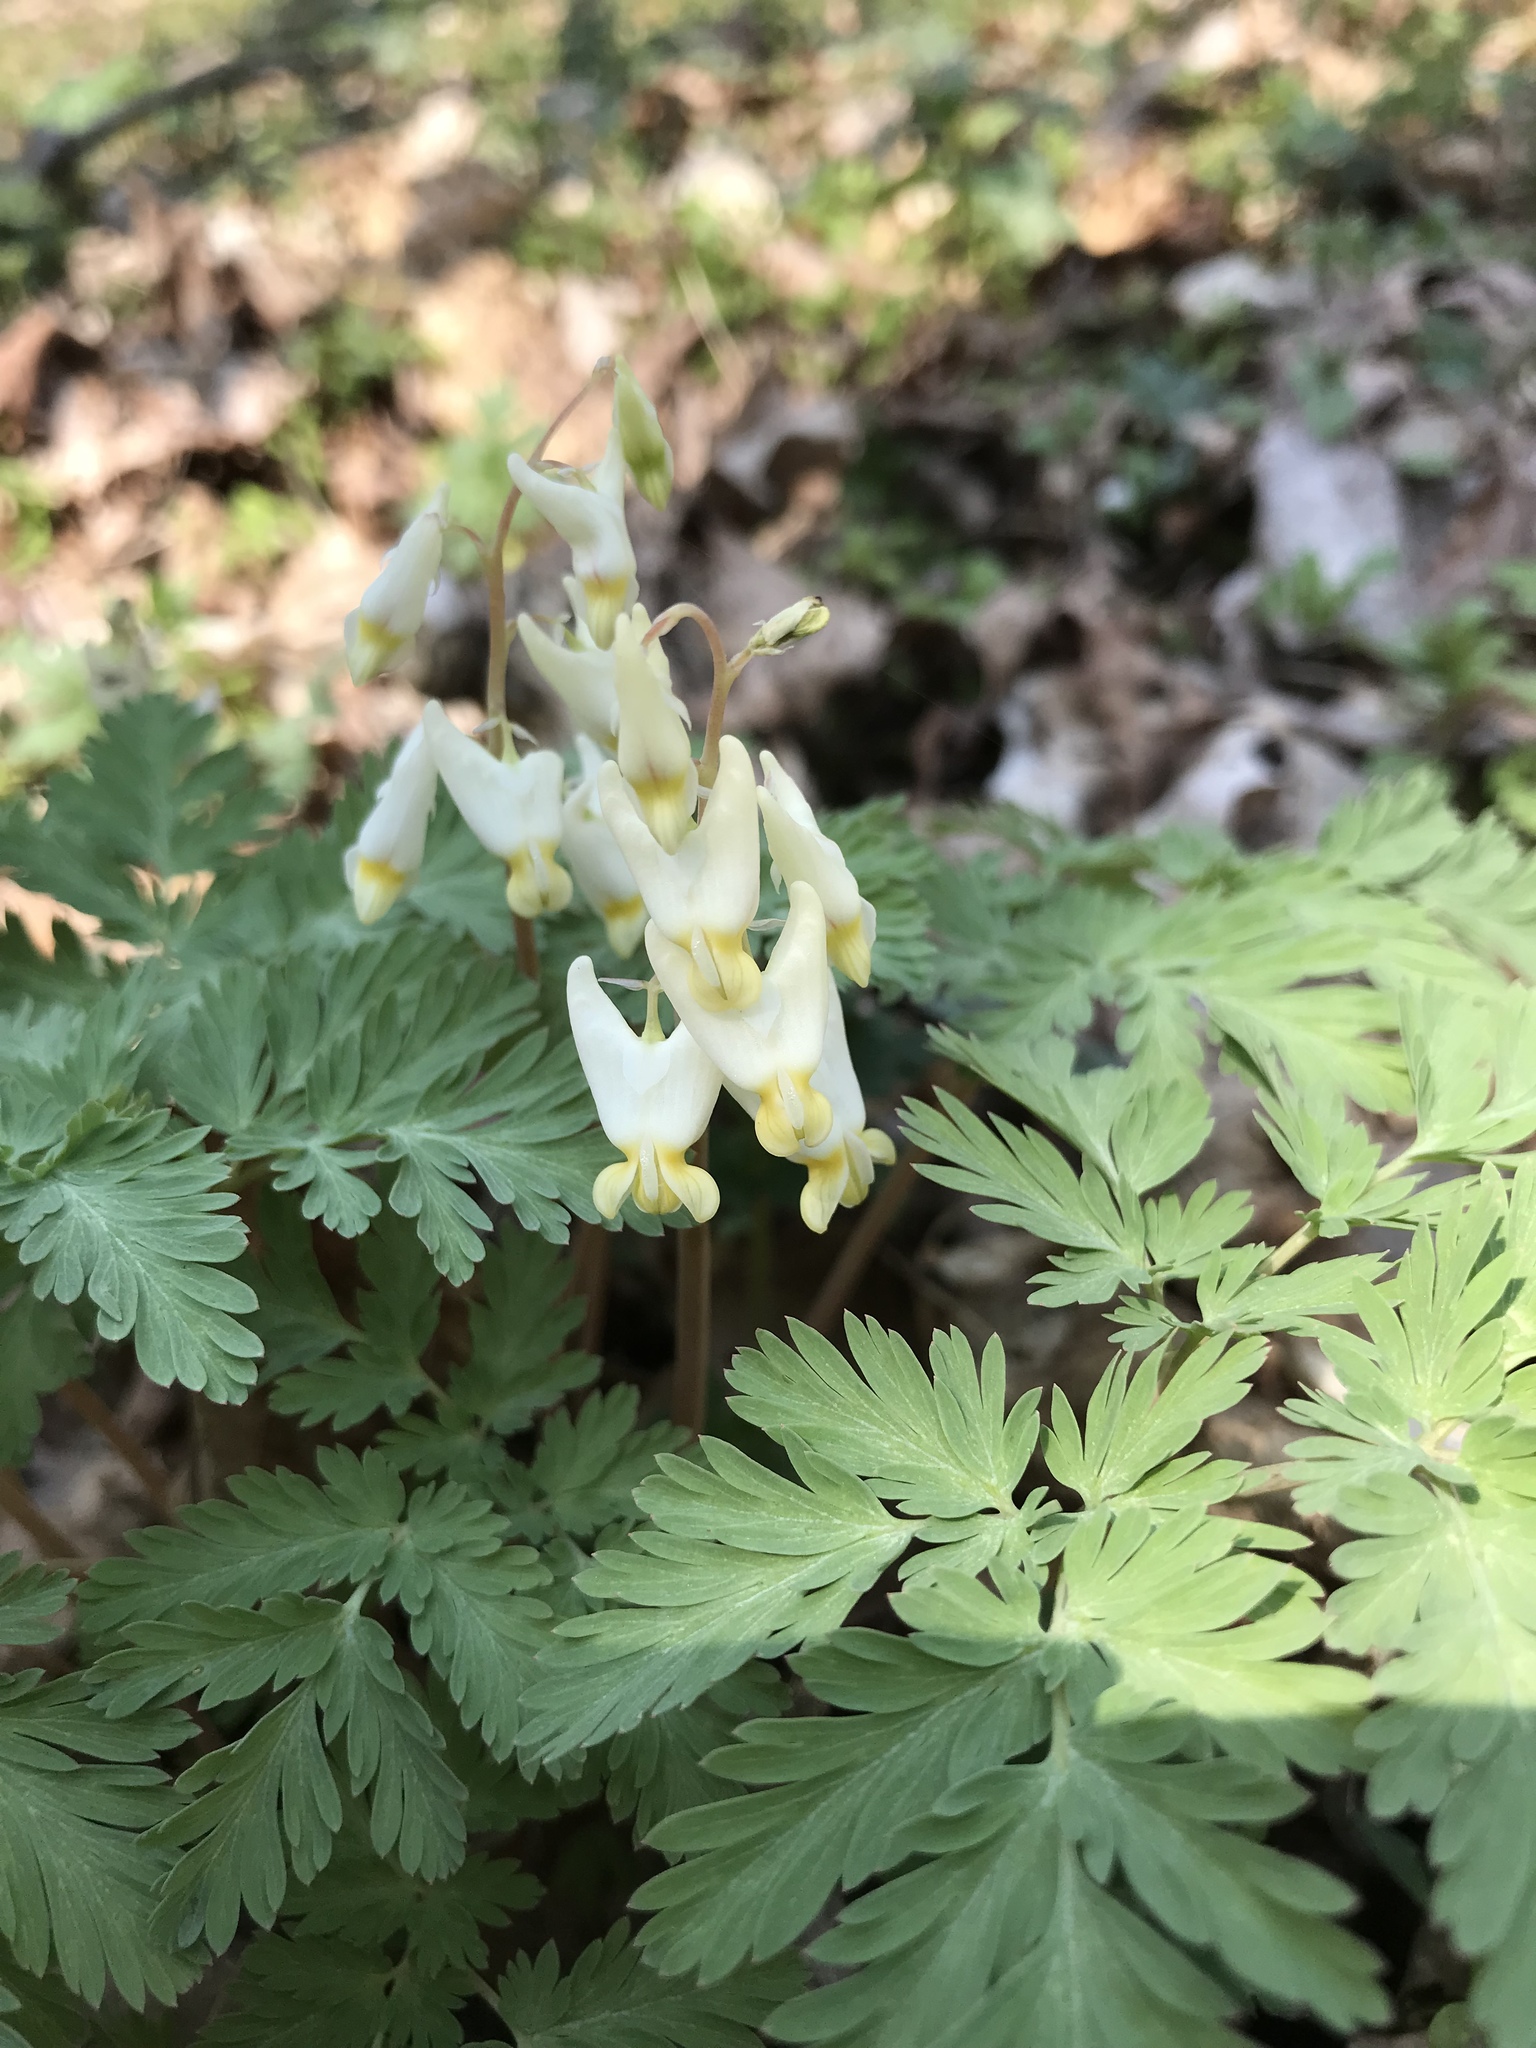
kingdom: Plantae
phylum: Tracheophyta
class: Magnoliopsida
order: Ranunculales
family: Papaveraceae
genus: Dicentra
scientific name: Dicentra cucullaria
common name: Dutchman's breeches
